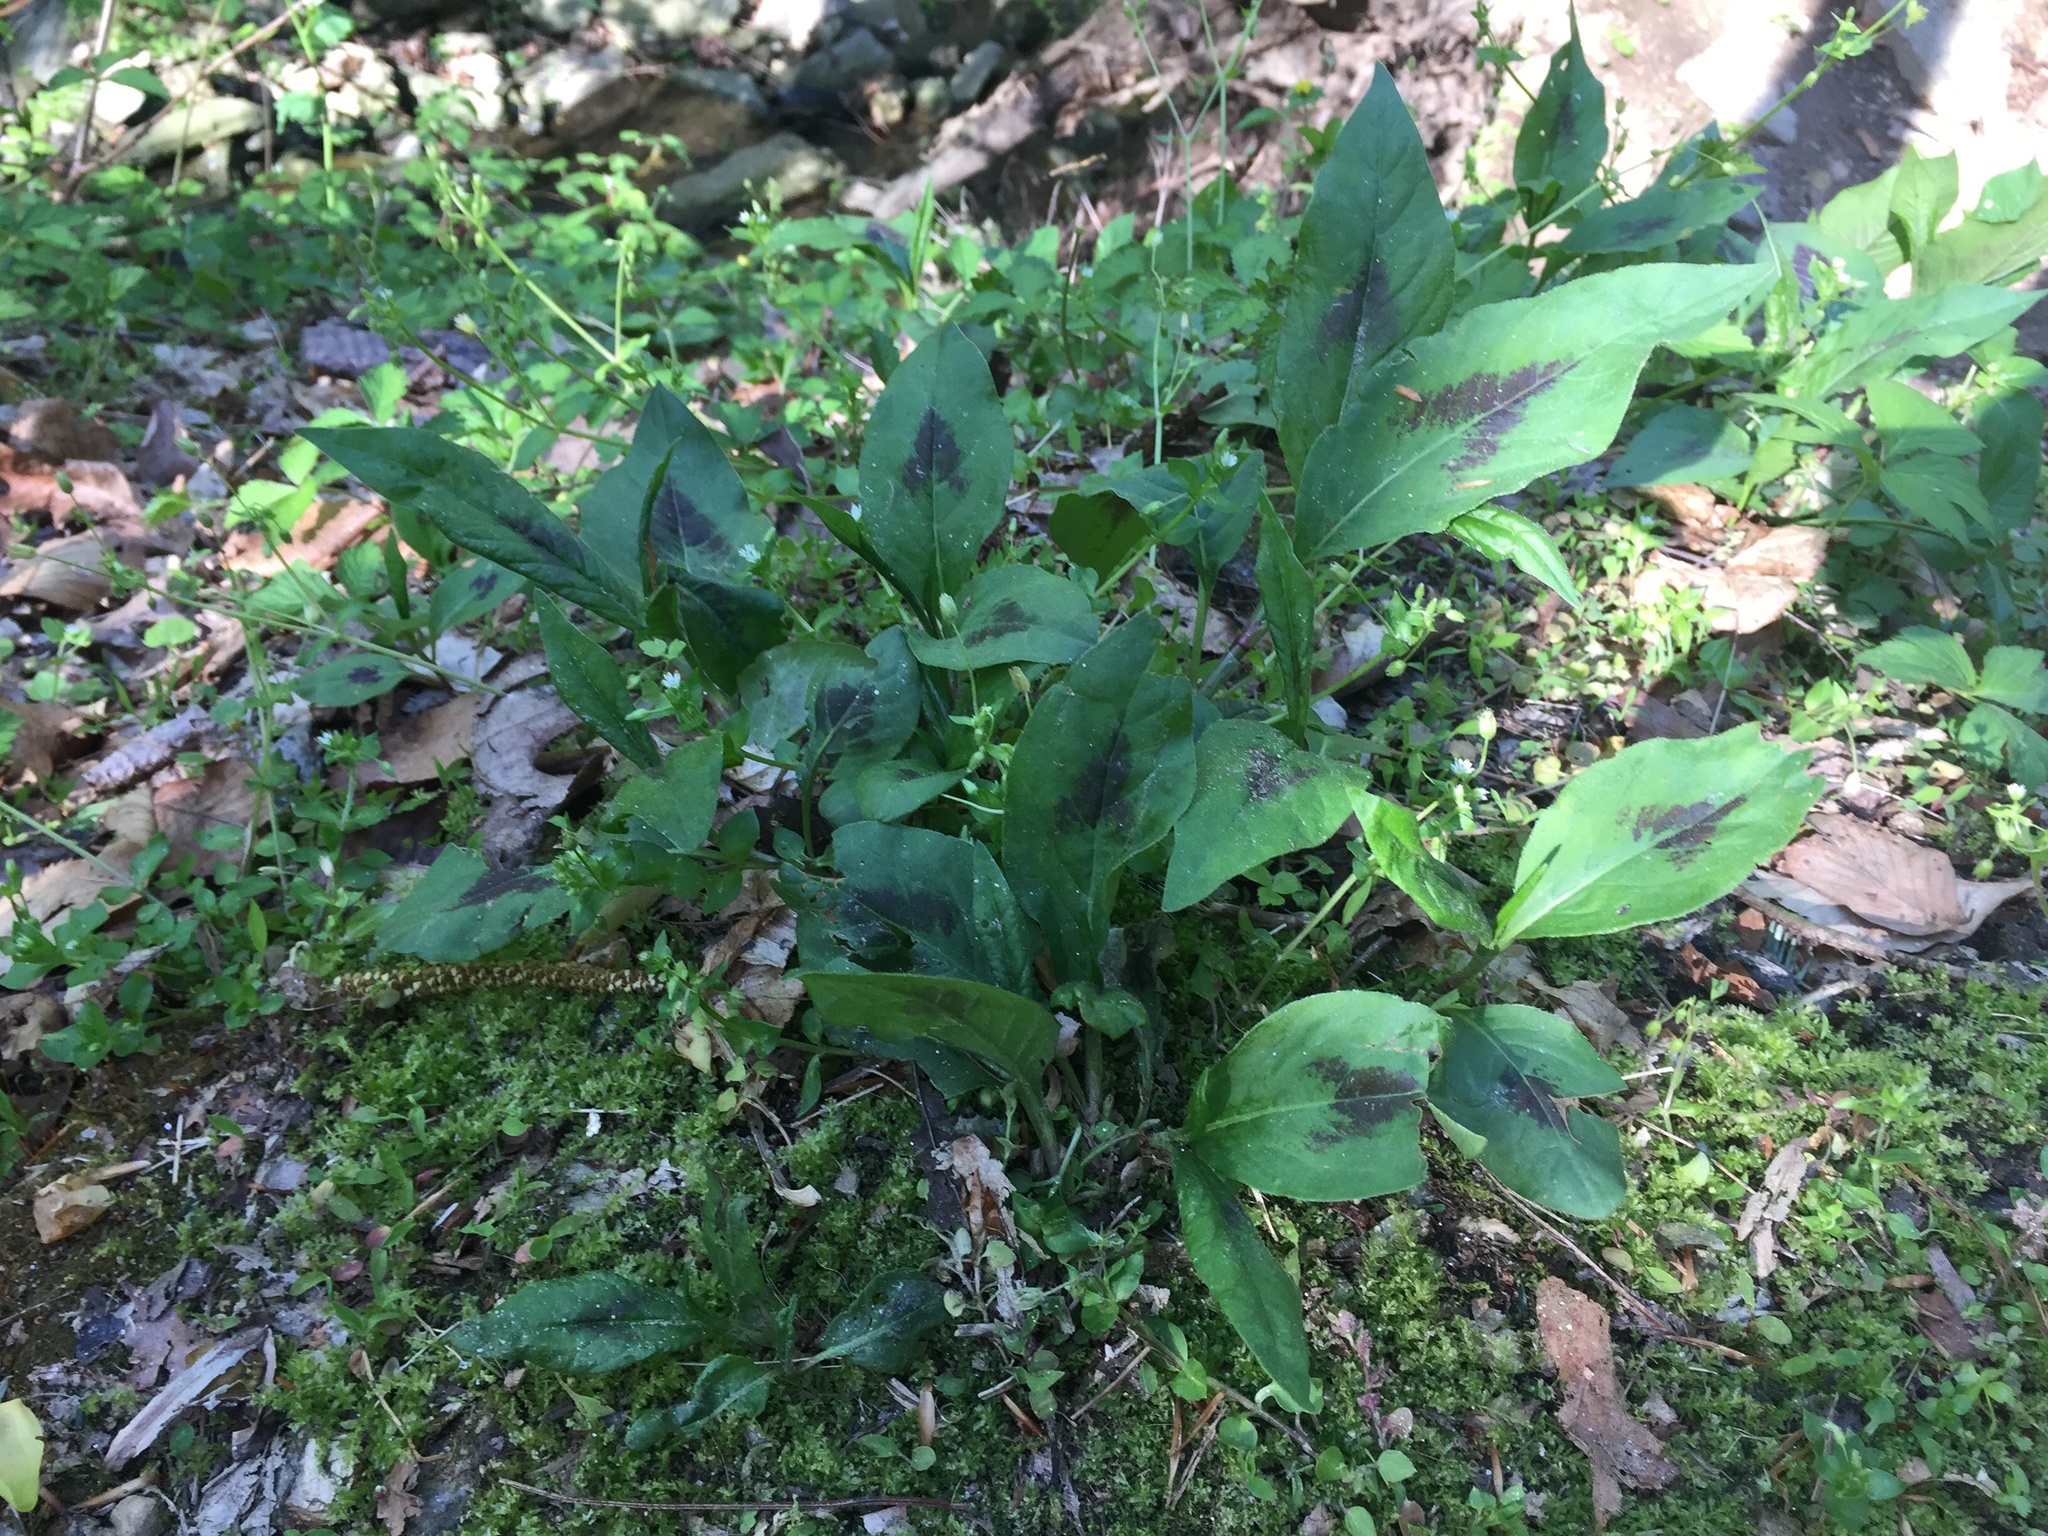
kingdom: Plantae
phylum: Tracheophyta
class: Magnoliopsida
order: Caryophyllales
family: Polygonaceae
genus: Persicaria
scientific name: Persicaria virginiana
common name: Jumpseed
